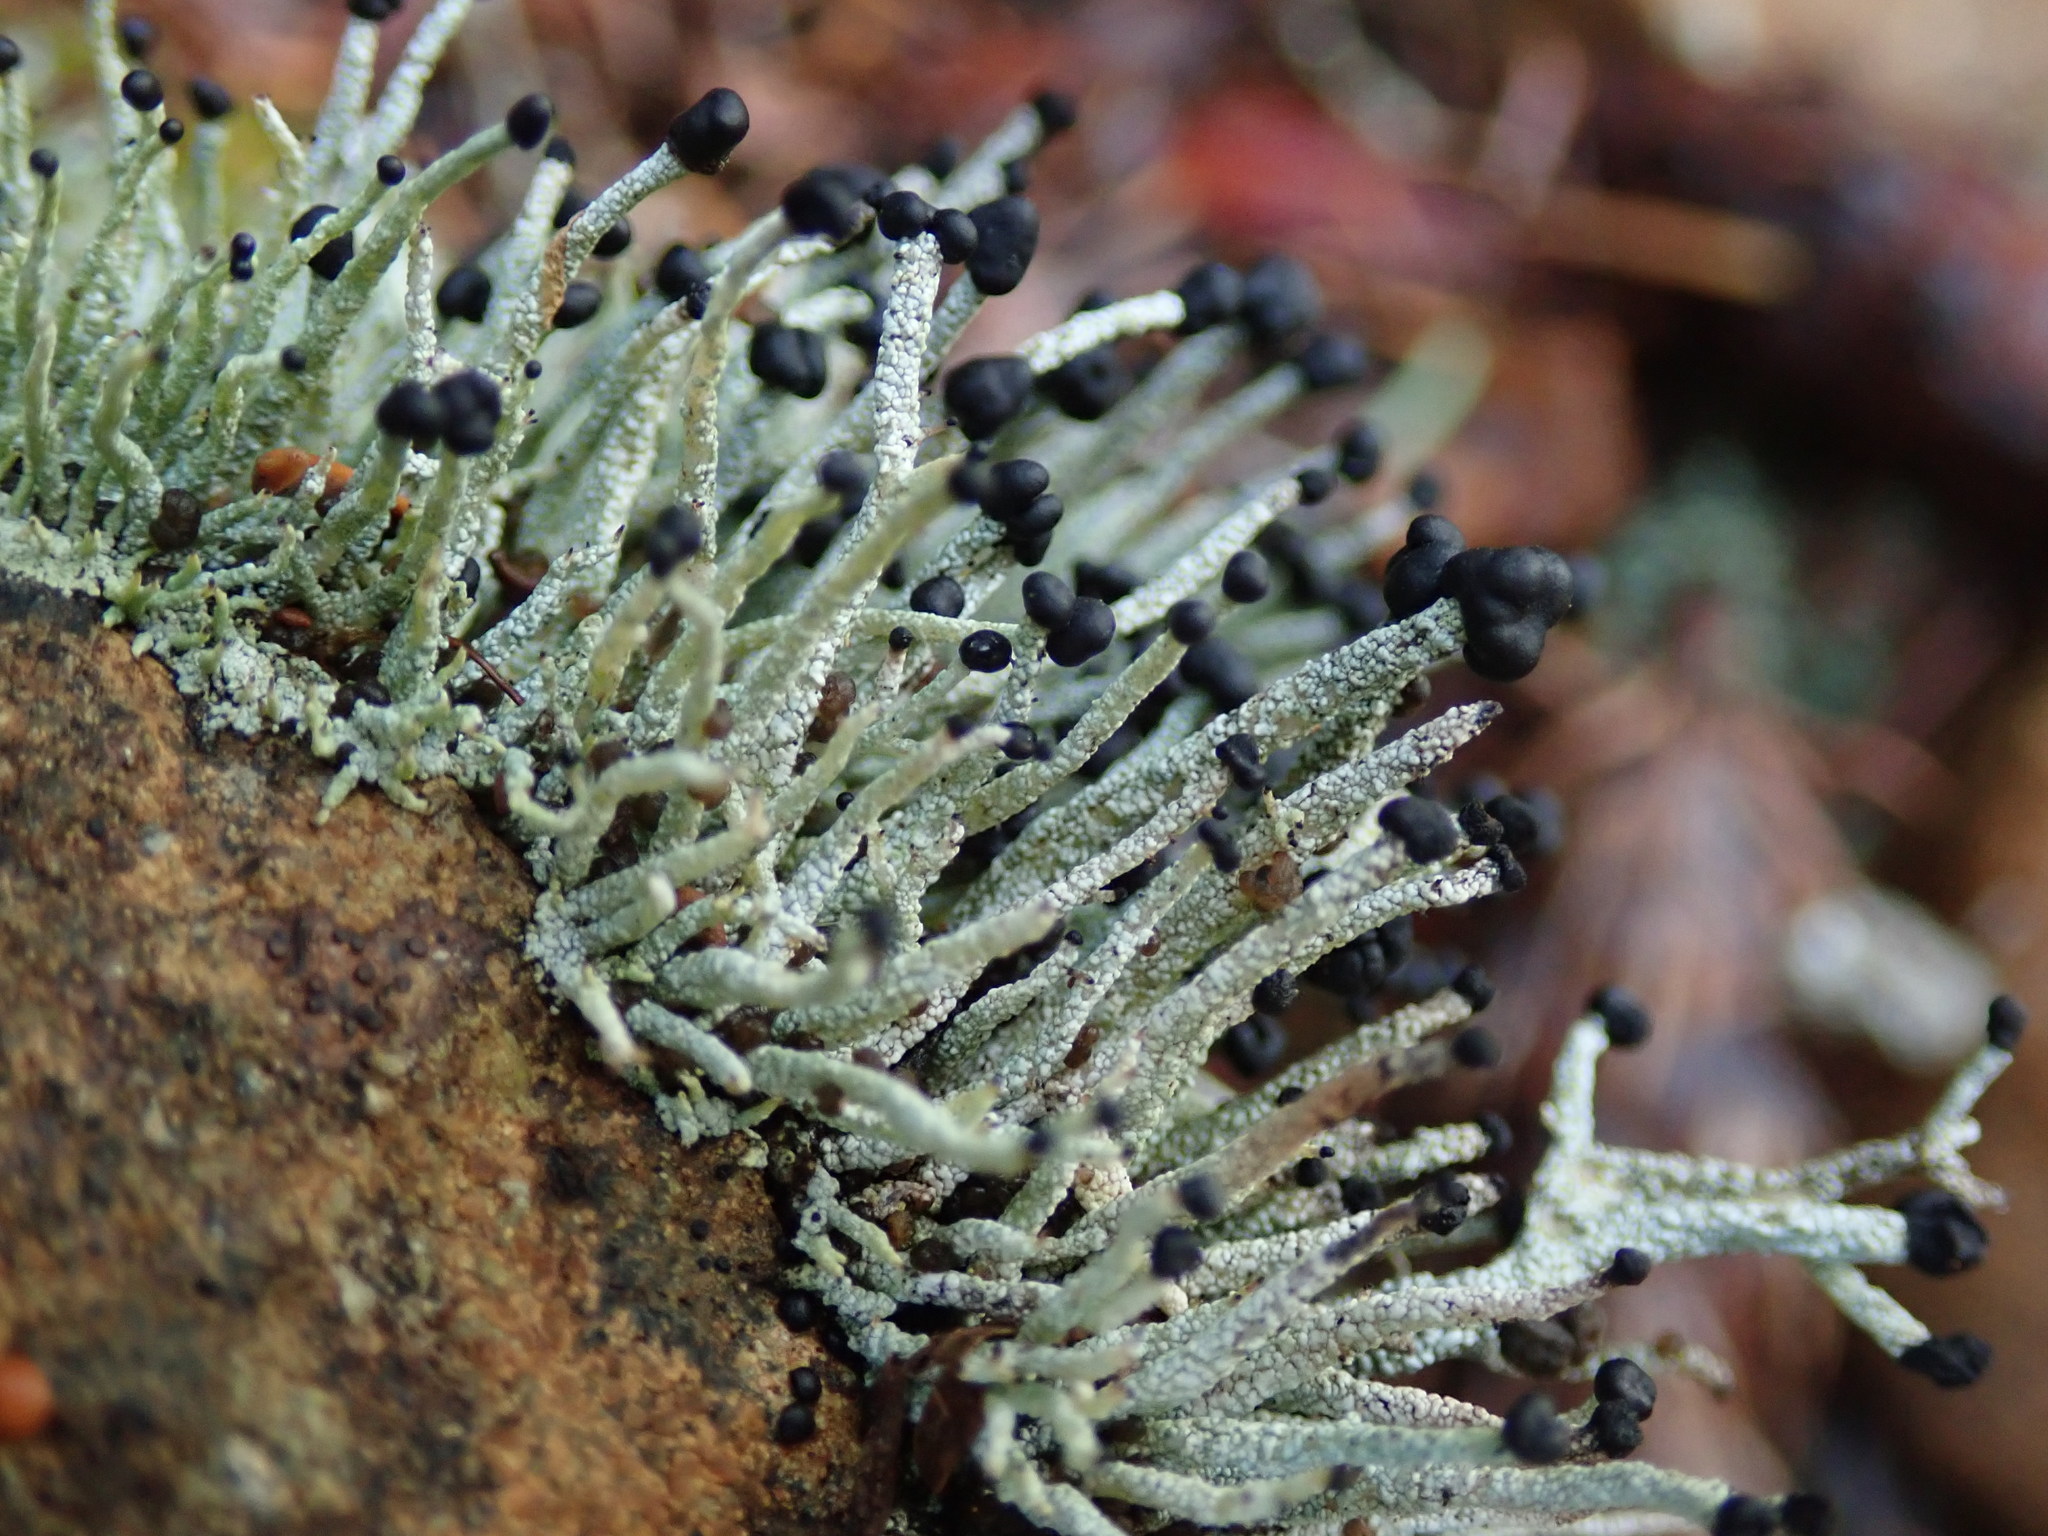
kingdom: Fungi
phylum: Ascomycota
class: Lecanoromycetes
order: Lecanorales
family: Cladoniaceae
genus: Pilophorus
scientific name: Pilophorus acicularis
